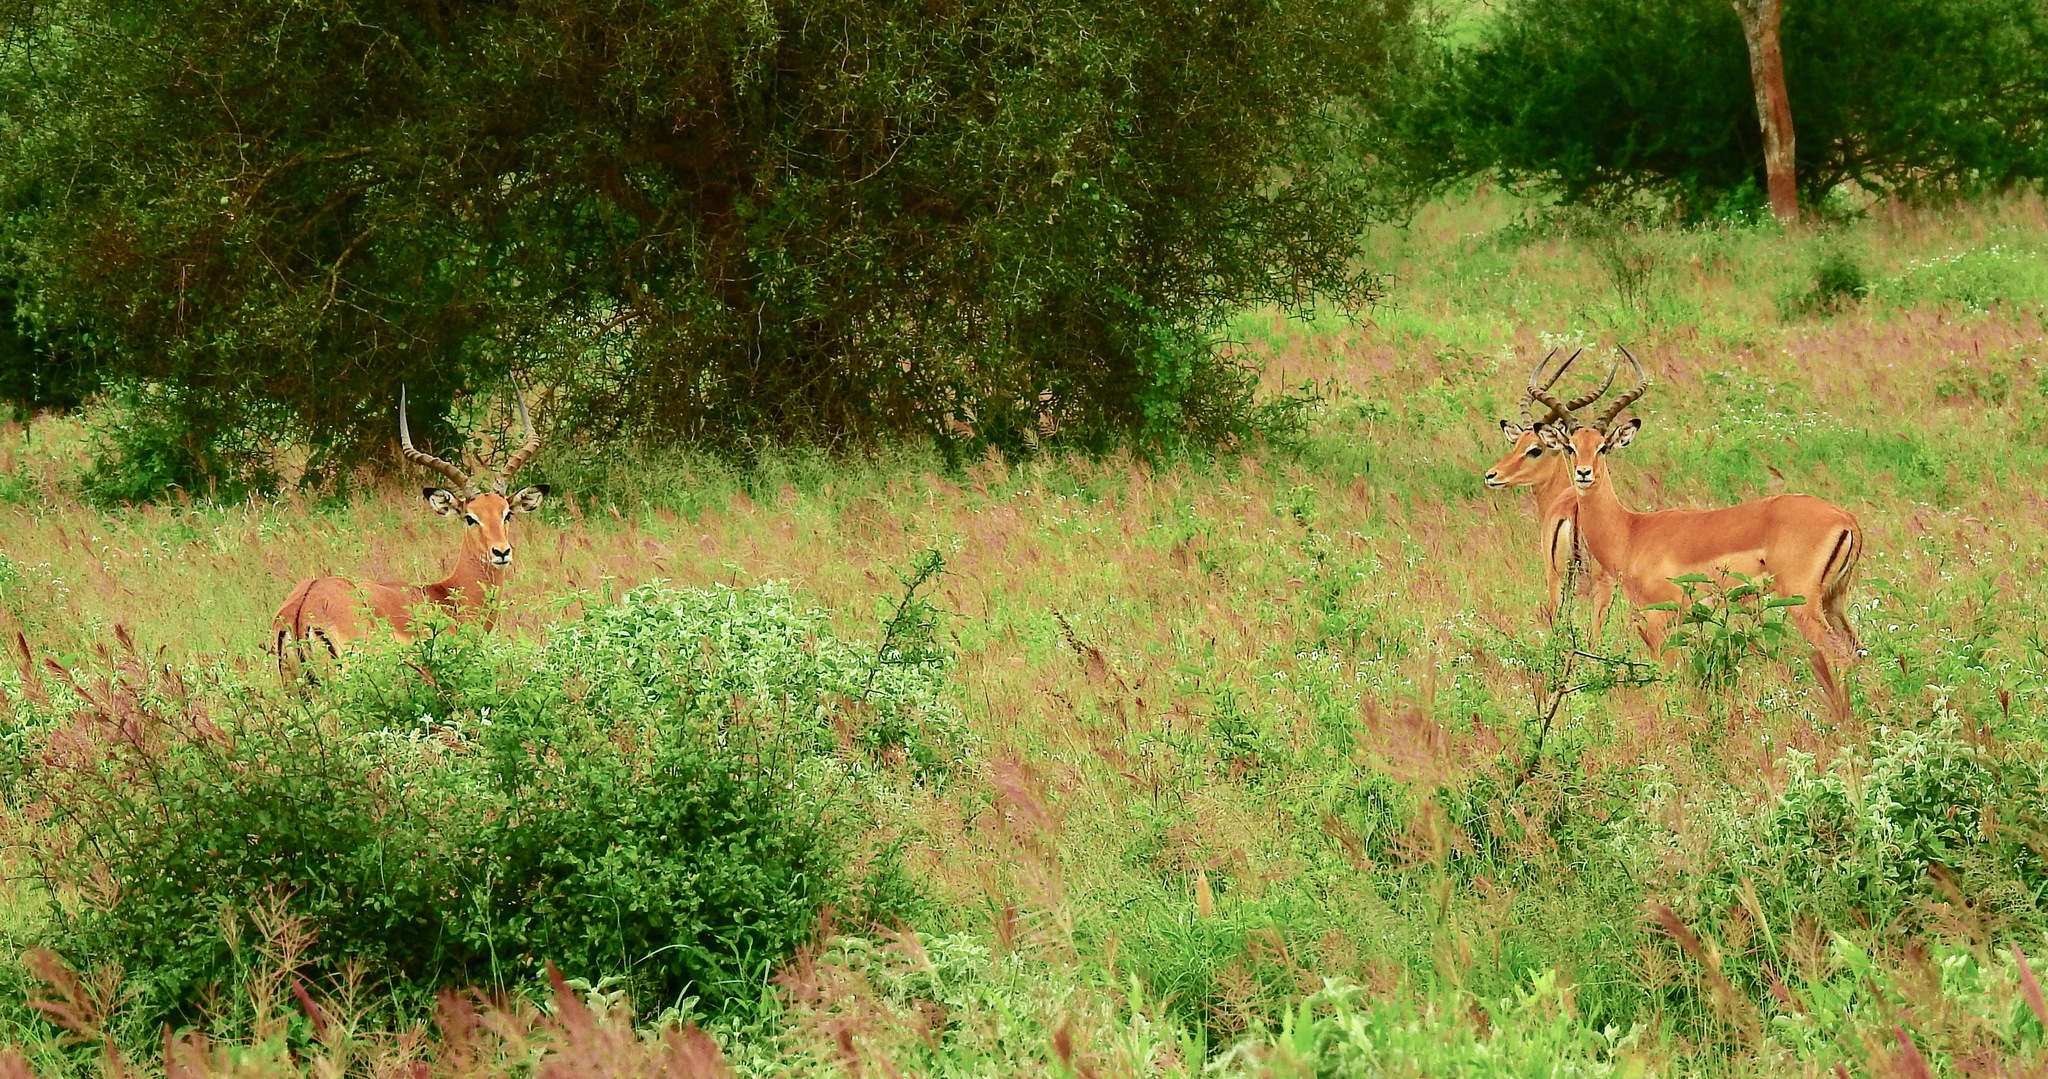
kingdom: Animalia
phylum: Chordata
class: Mammalia
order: Artiodactyla
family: Bovidae
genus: Aepyceros
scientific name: Aepyceros melampus
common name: Impala
